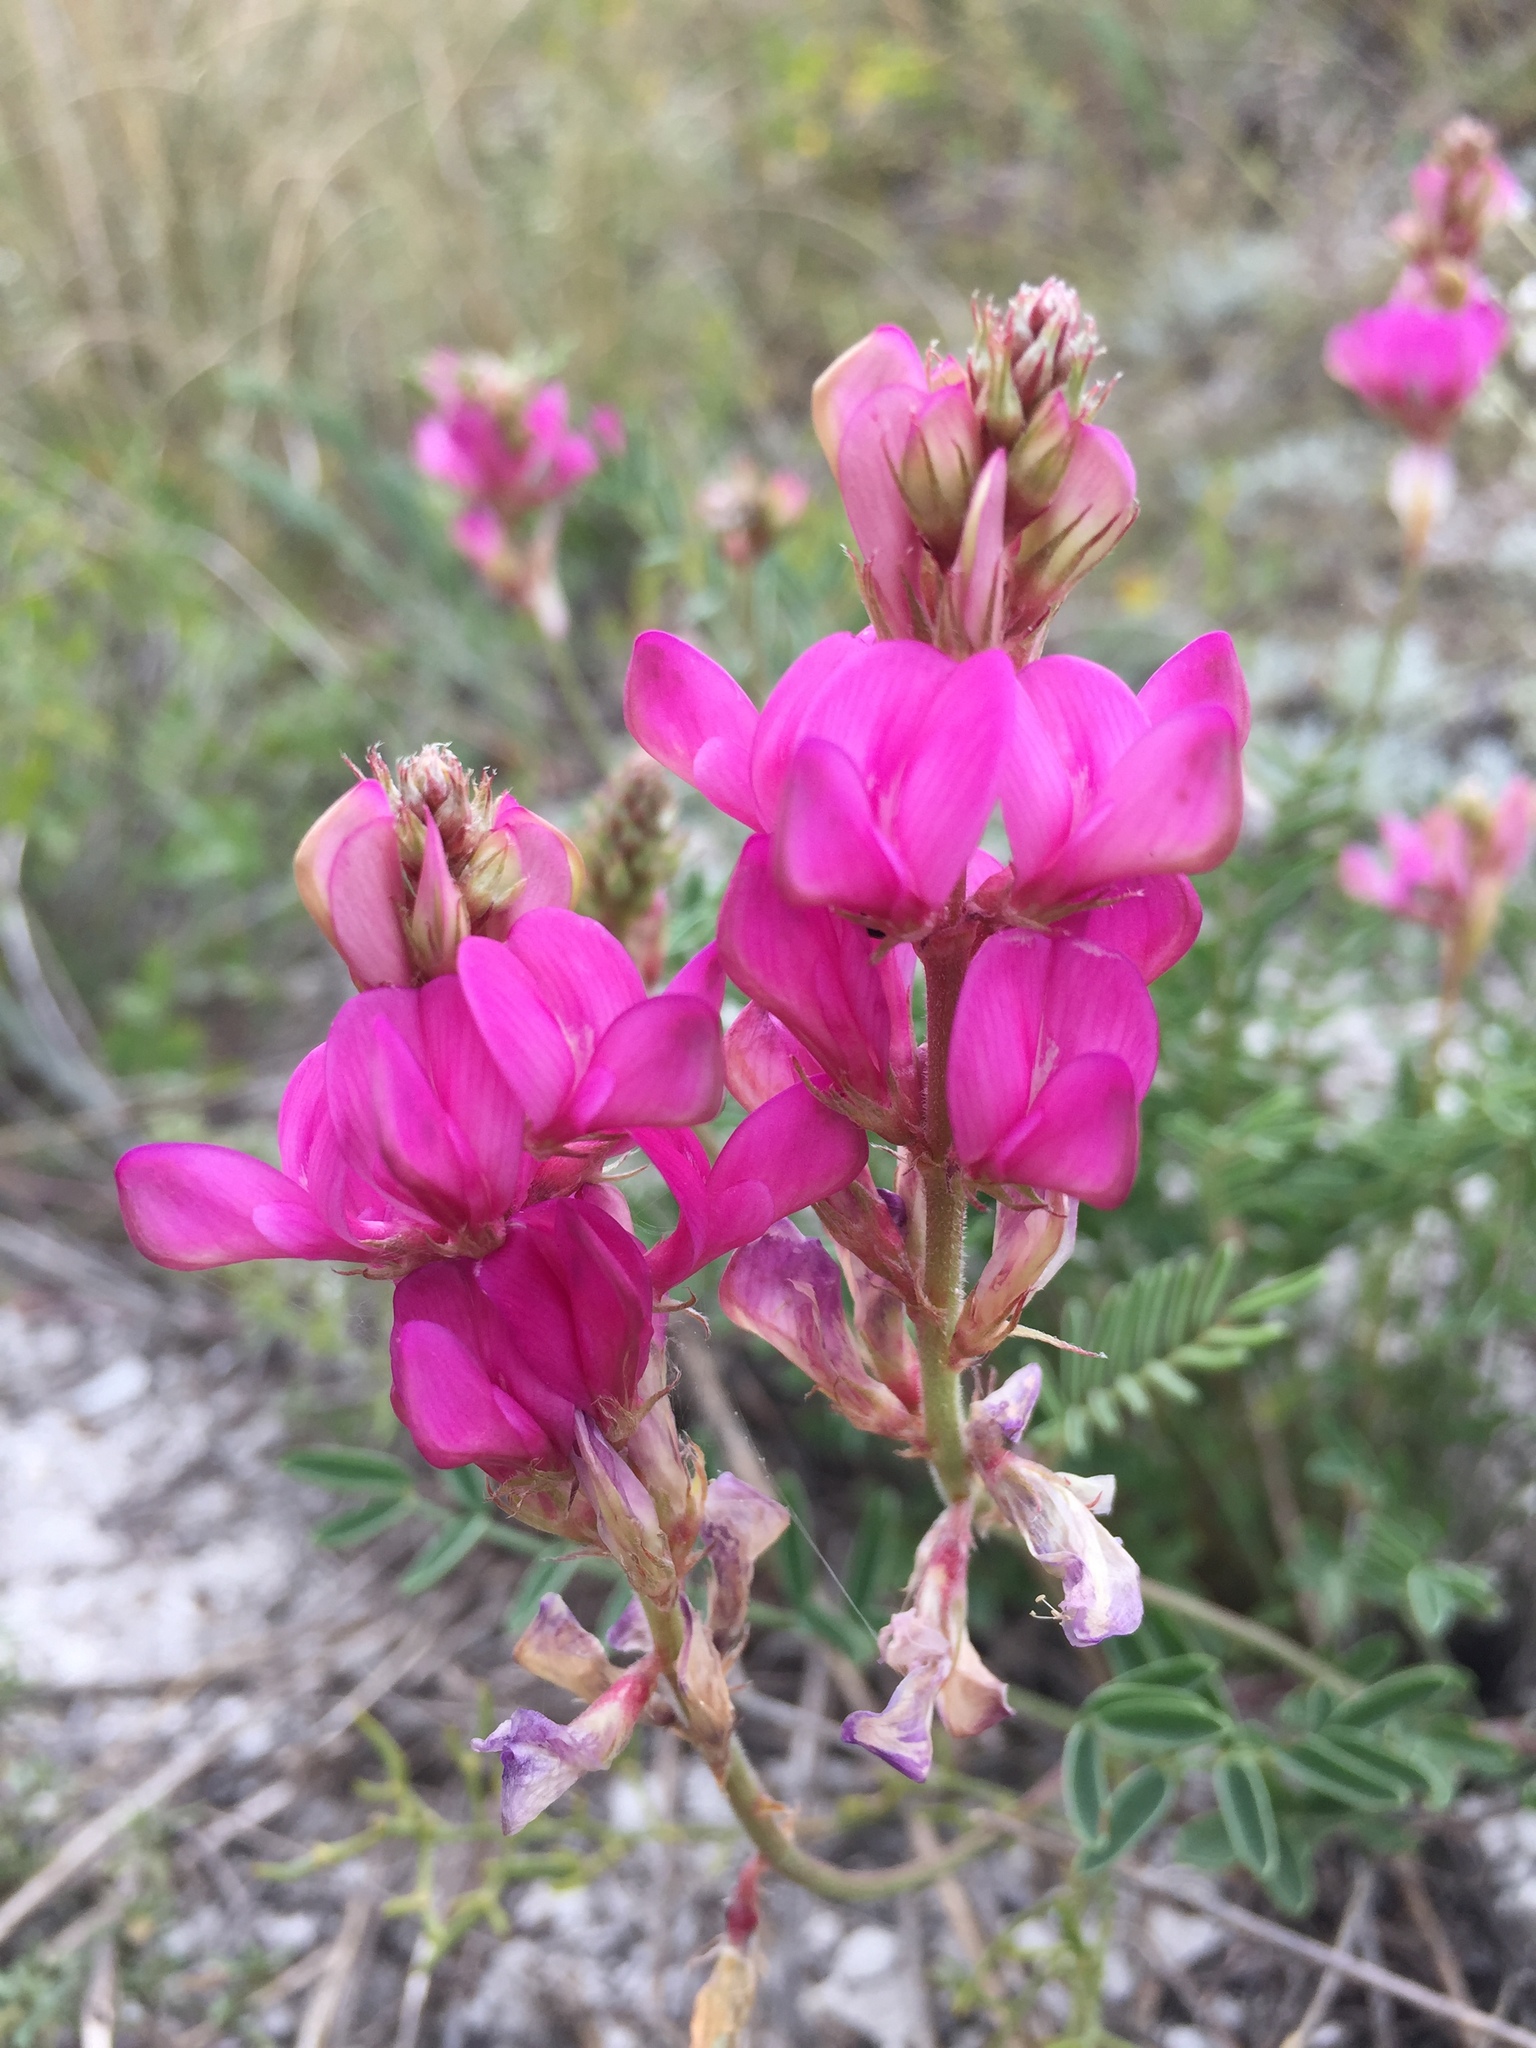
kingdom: Plantae
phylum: Tracheophyta
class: Magnoliopsida
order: Fabales
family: Fabaceae
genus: Hedysarum
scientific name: Hedysarum ucrainicum
